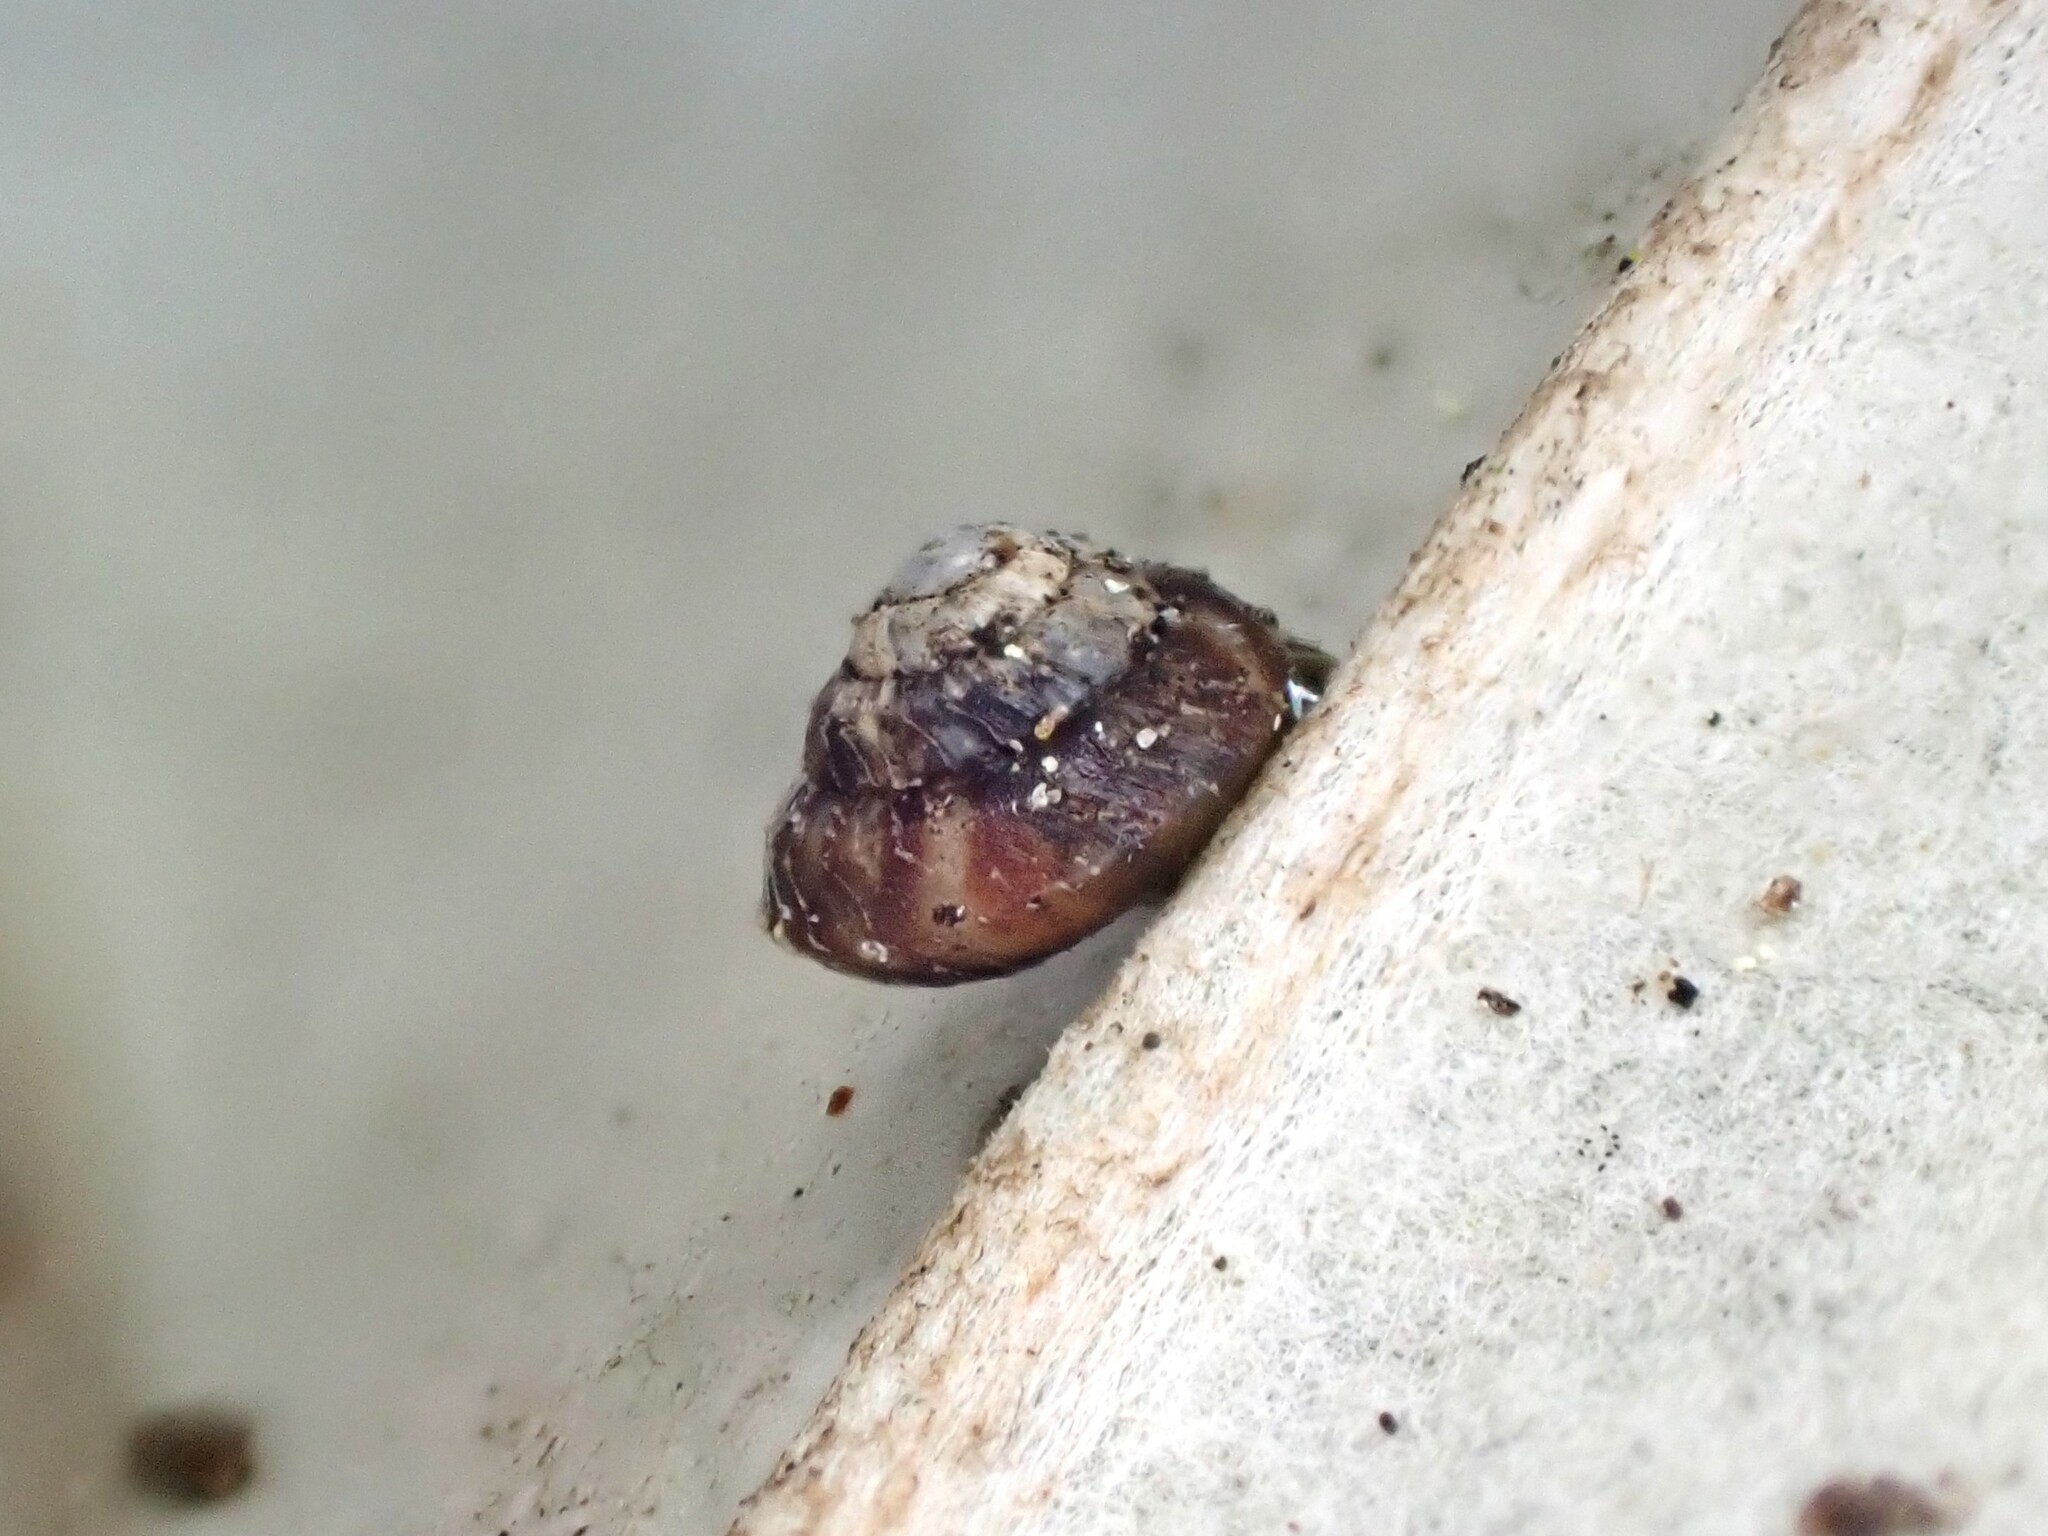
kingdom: Animalia
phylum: Mollusca
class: Gastropoda
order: Stylommatophora
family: Punctidae
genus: Phrixgnathus
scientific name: Phrixgnathus phrynia
